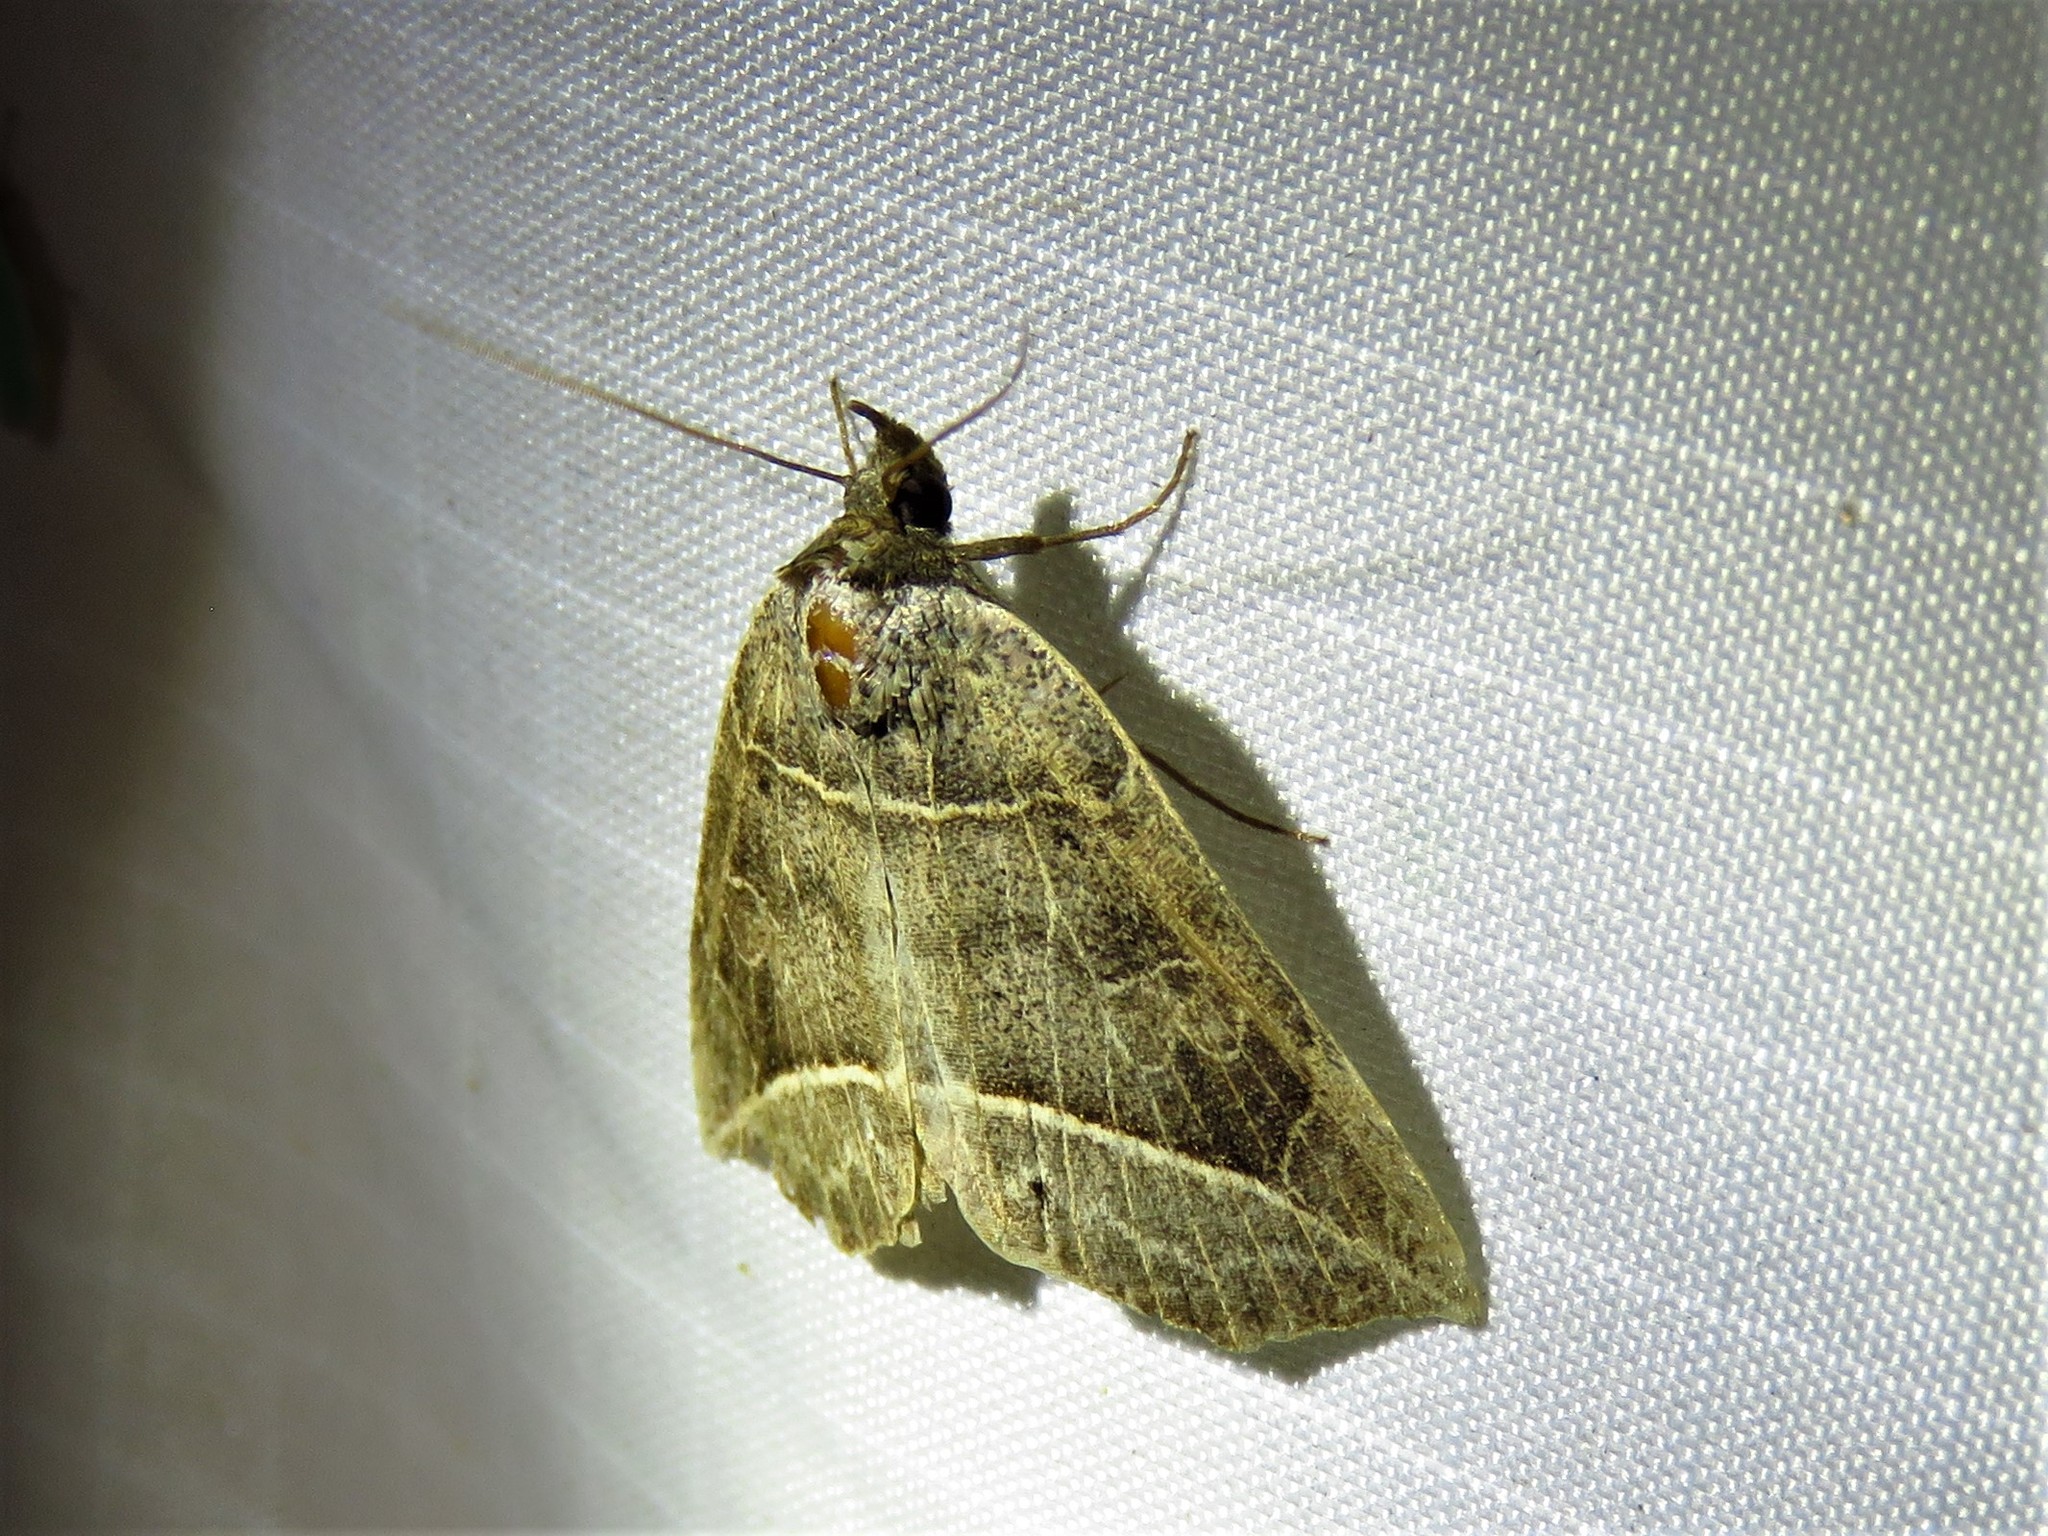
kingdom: Animalia
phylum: Arthropoda
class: Insecta
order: Lepidoptera
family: Erebidae
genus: Isogona
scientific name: Isogona tenuis
